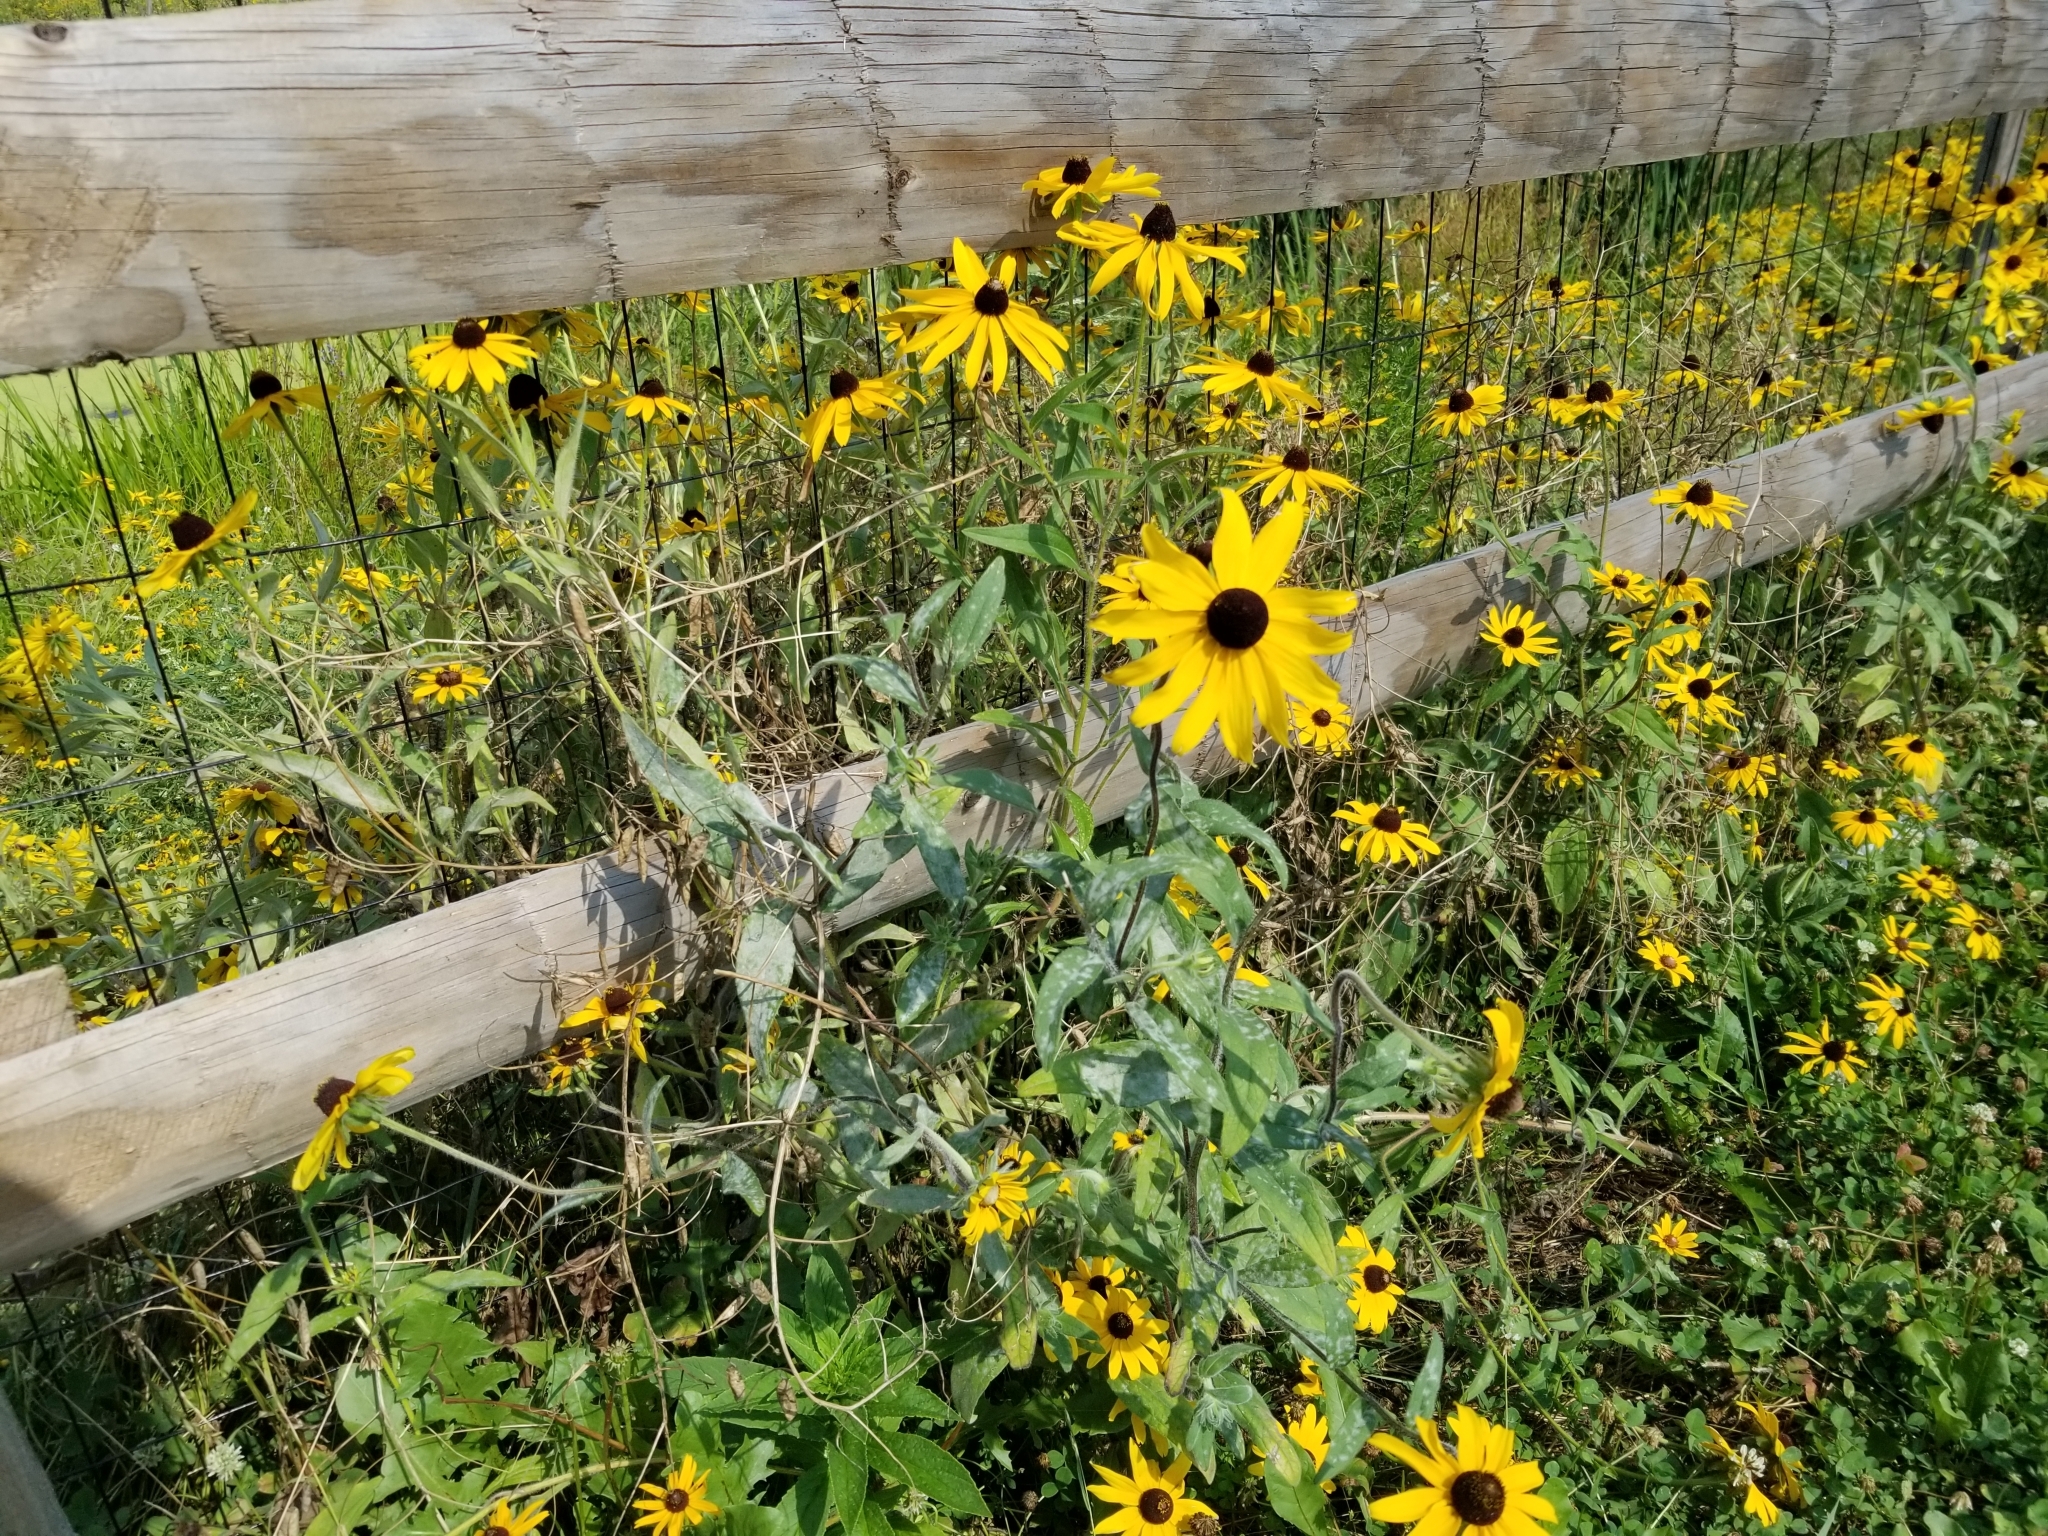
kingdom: Plantae
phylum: Tracheophyta
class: Magnoliopsida
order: Asterales
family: Asteraceae
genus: Rudbeckia
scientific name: Rudbeckia hirta
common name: Black-eyed-susan
